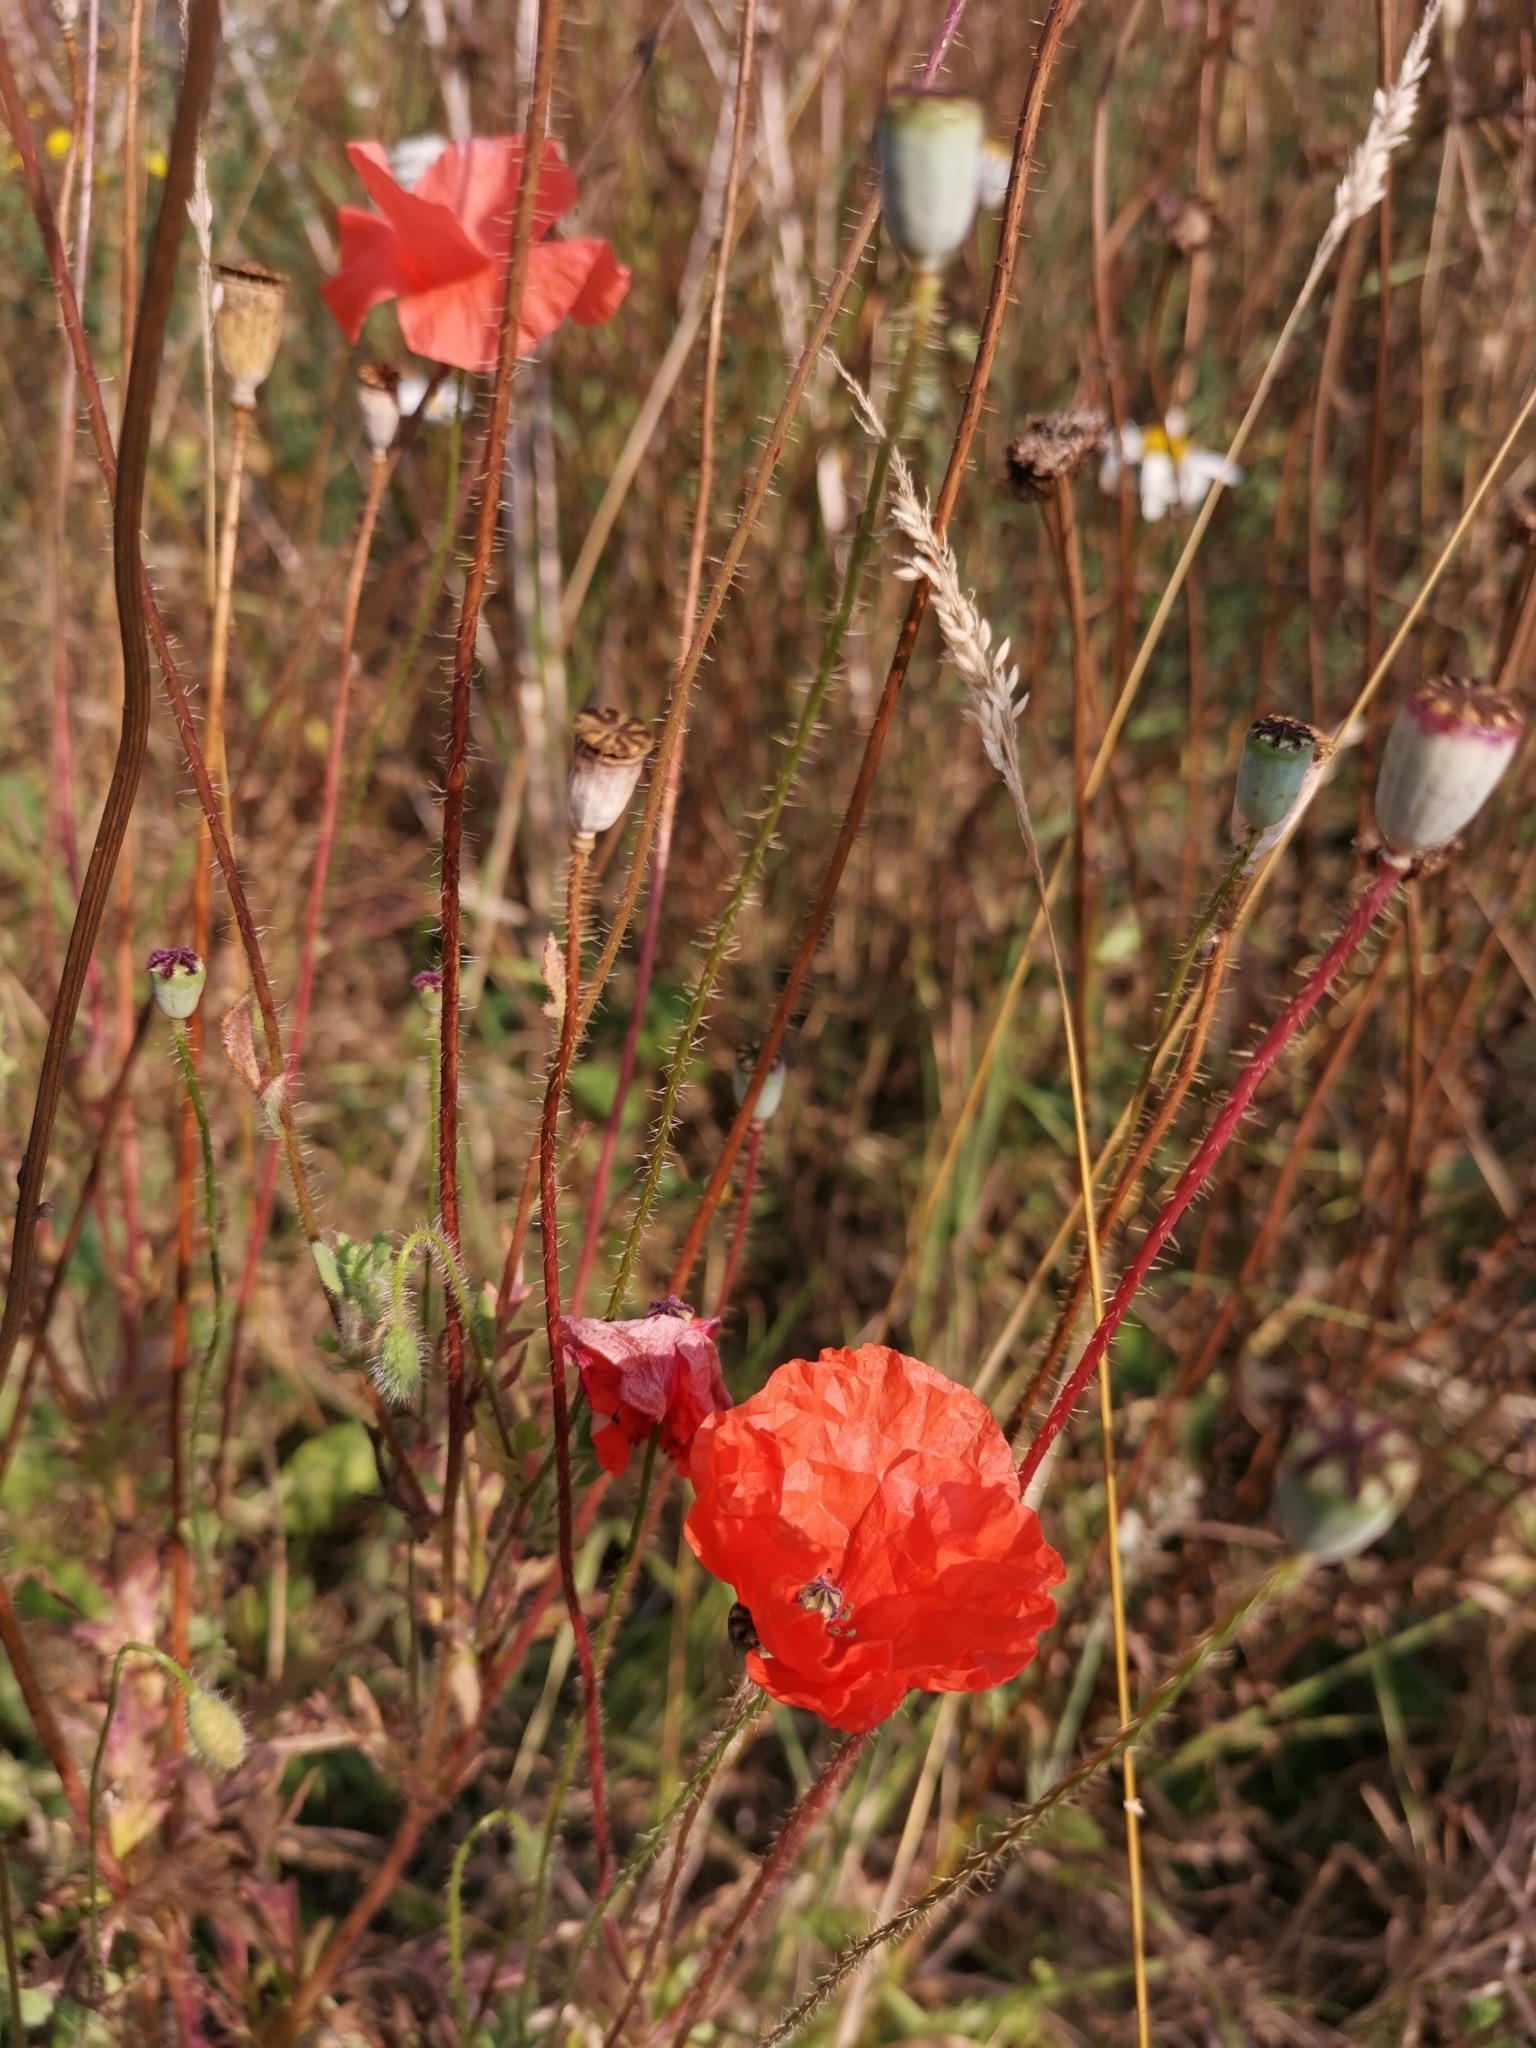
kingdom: Plantae
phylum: Tracheophyta
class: Magnoliopsida
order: Ranunculales
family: Papaveraceae
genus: Papaver
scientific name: Papaver rhoeas
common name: Corn poppy
